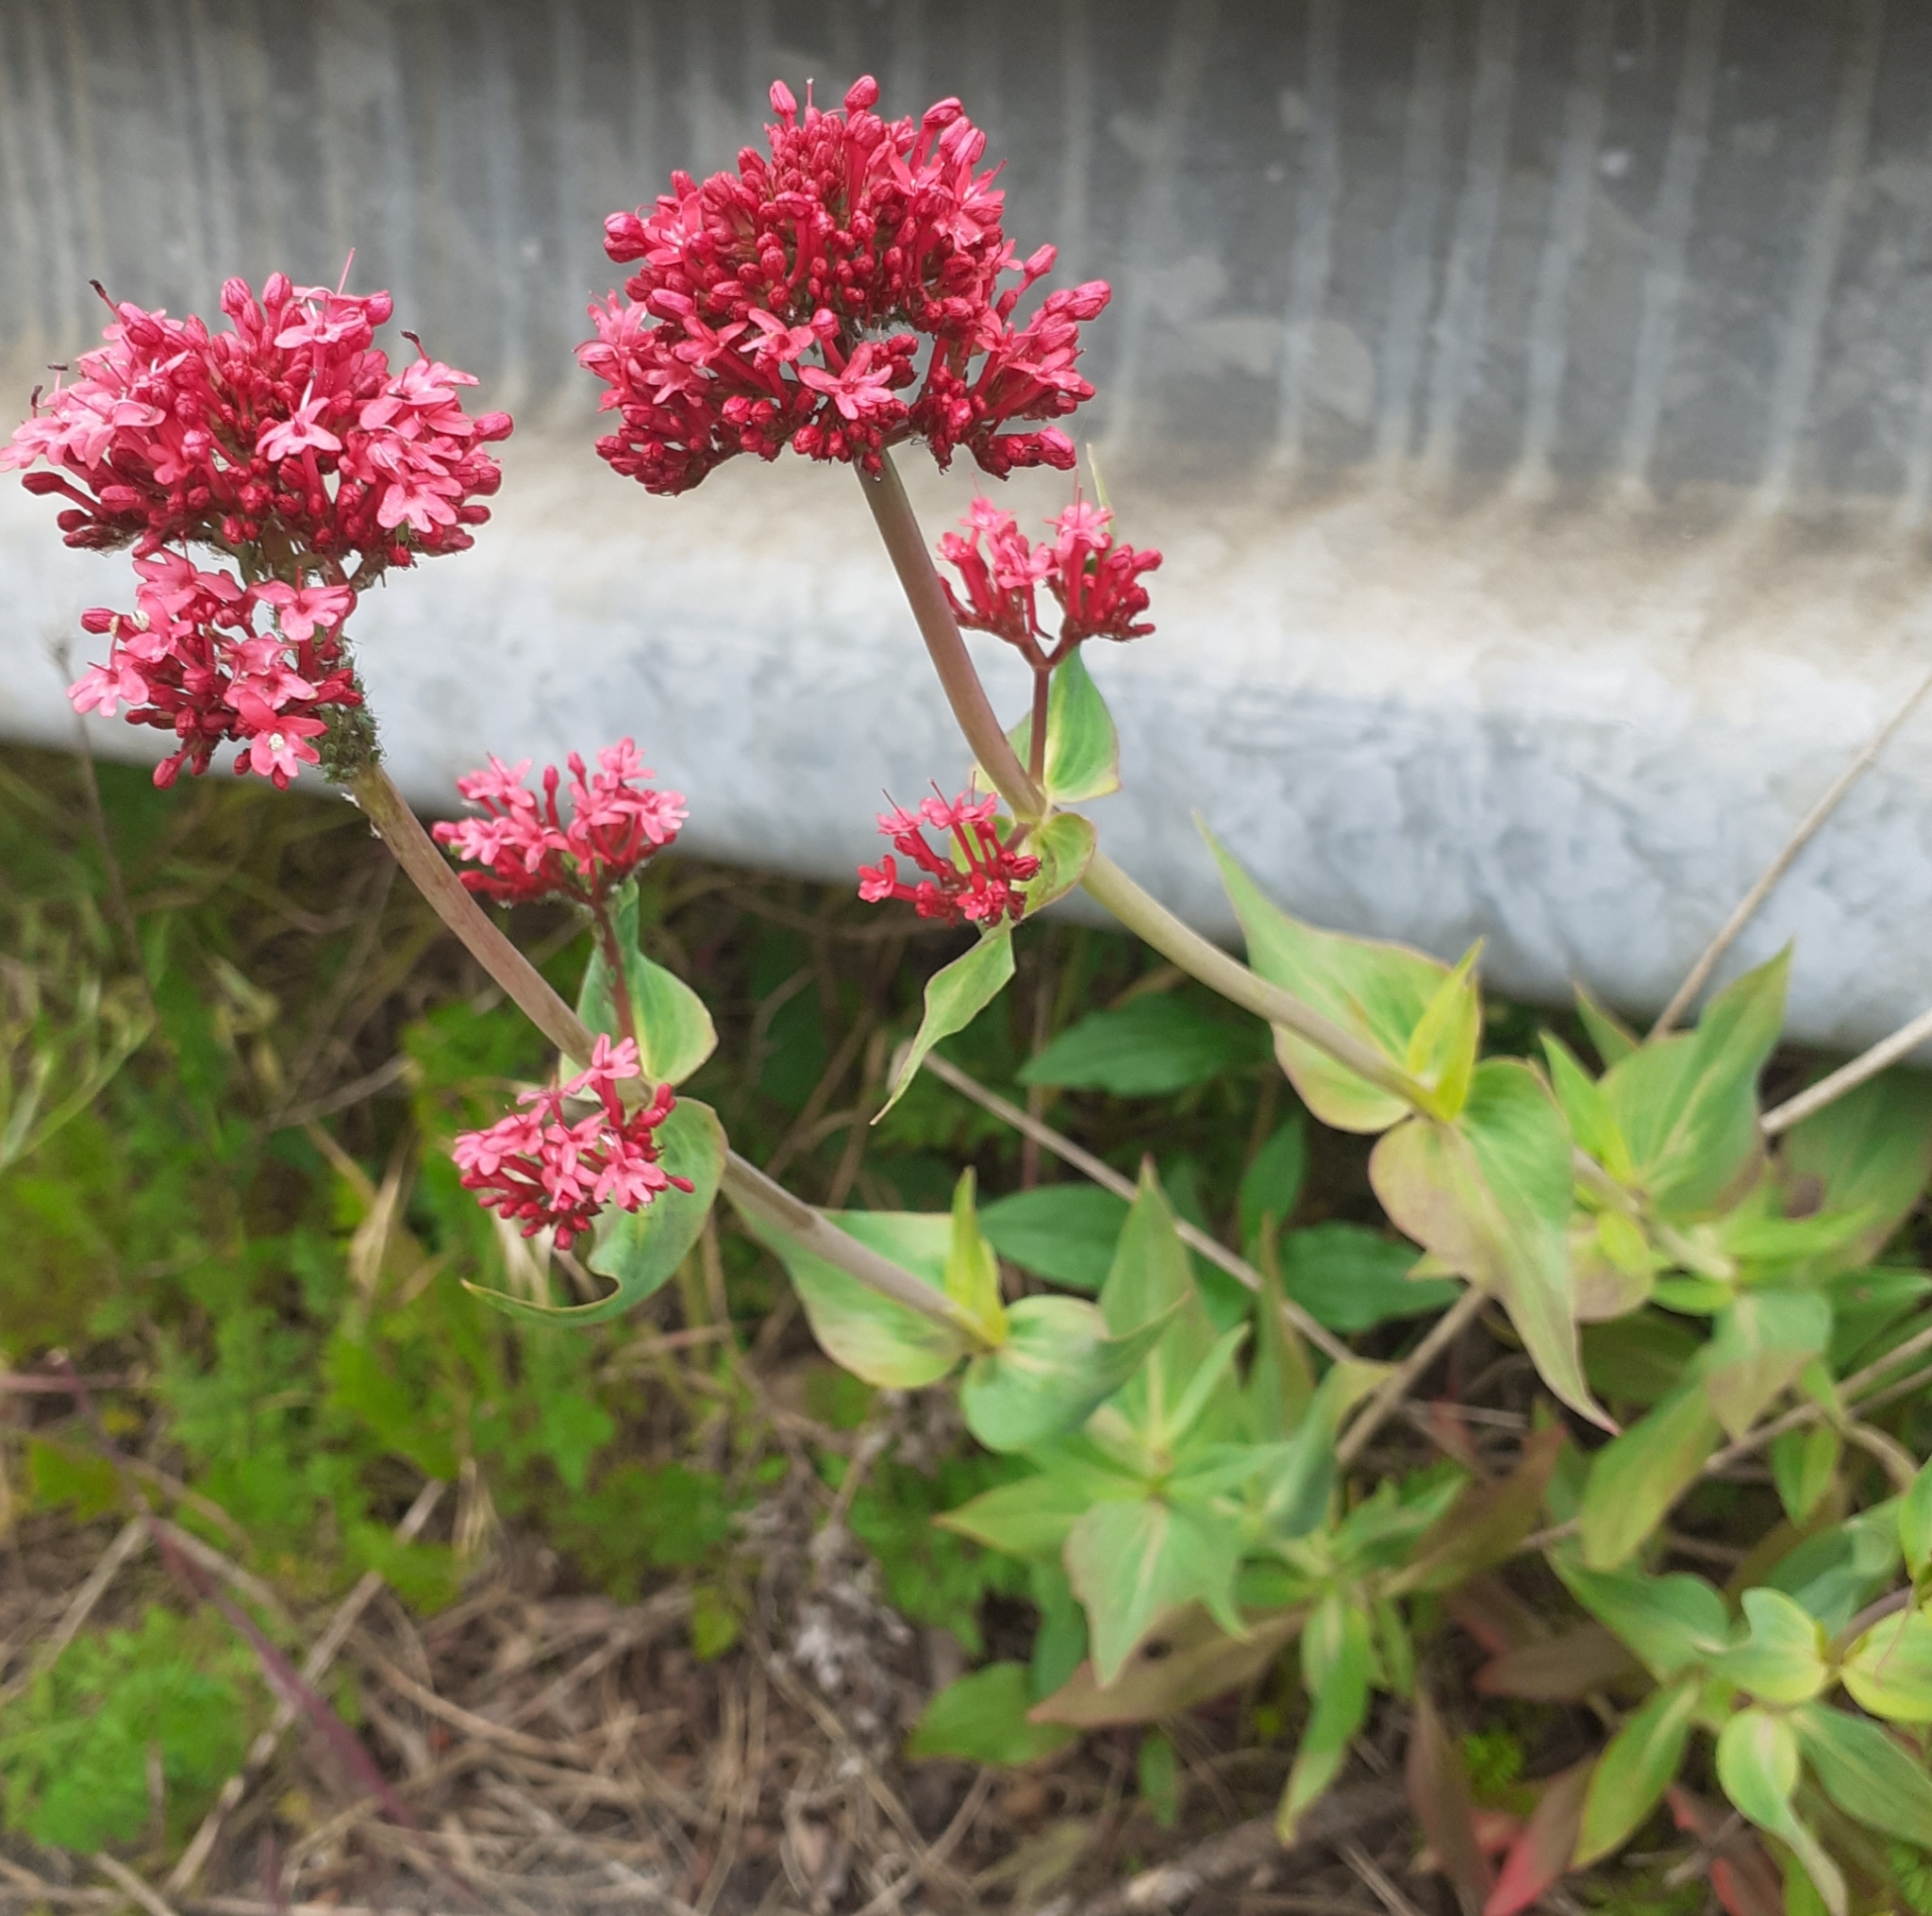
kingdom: Plantae
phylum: Tracheophyta
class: Magnoliopsida
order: Dipsacales
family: Caprifoliaceae
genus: Centranthus
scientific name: Centranthus ruber
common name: Red valerian
